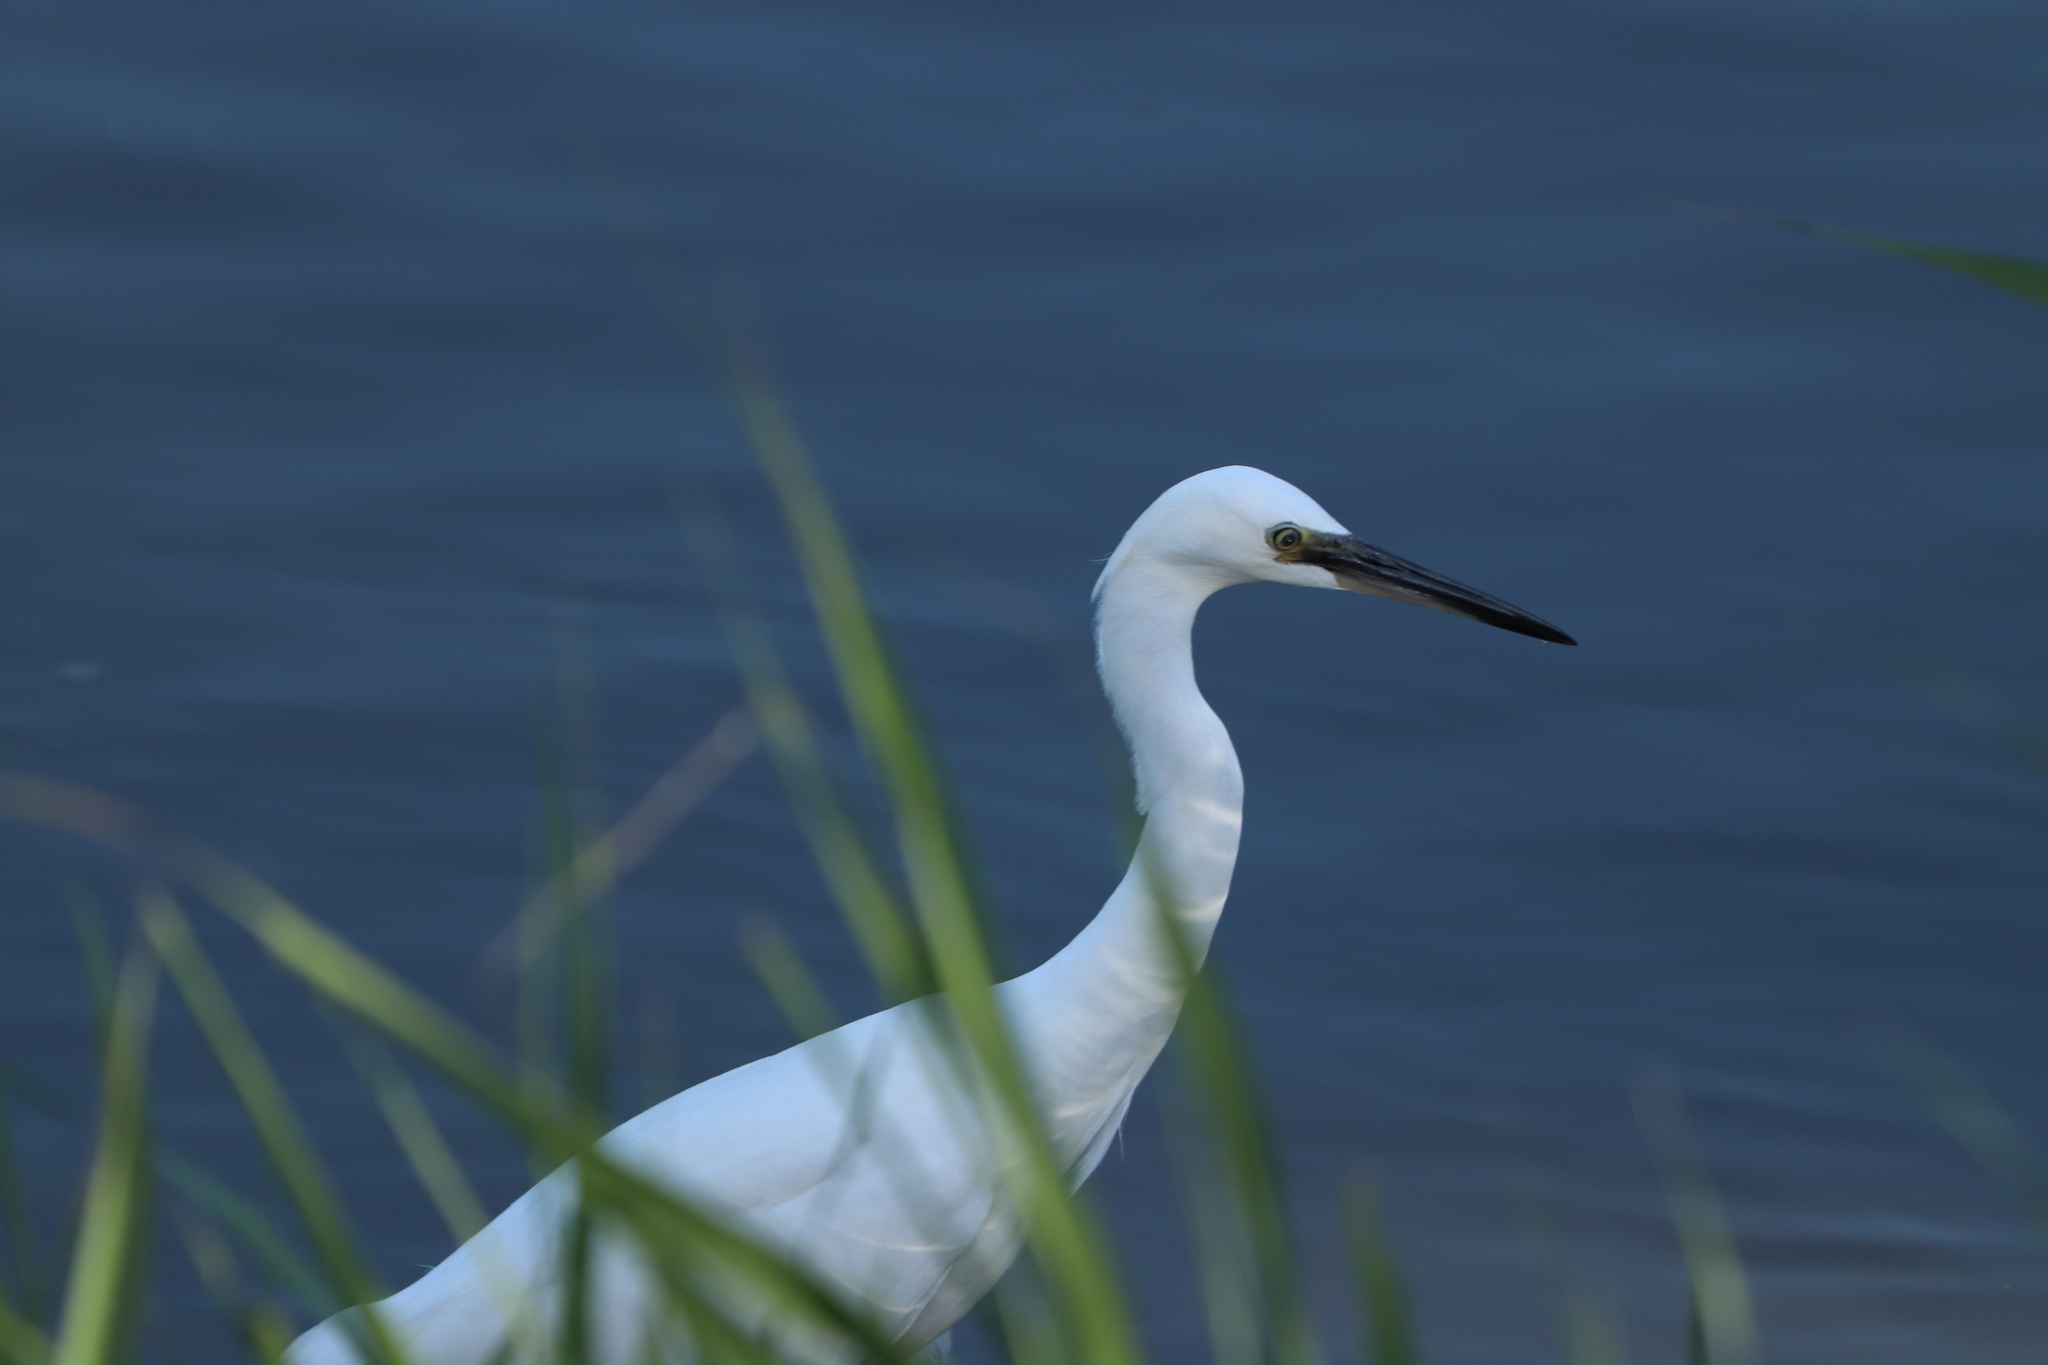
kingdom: Animalia
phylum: Chordata
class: Aves
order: Pelecaniformes
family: Ardeidae
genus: Egretta
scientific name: Egretta garzetta
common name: Little egret
